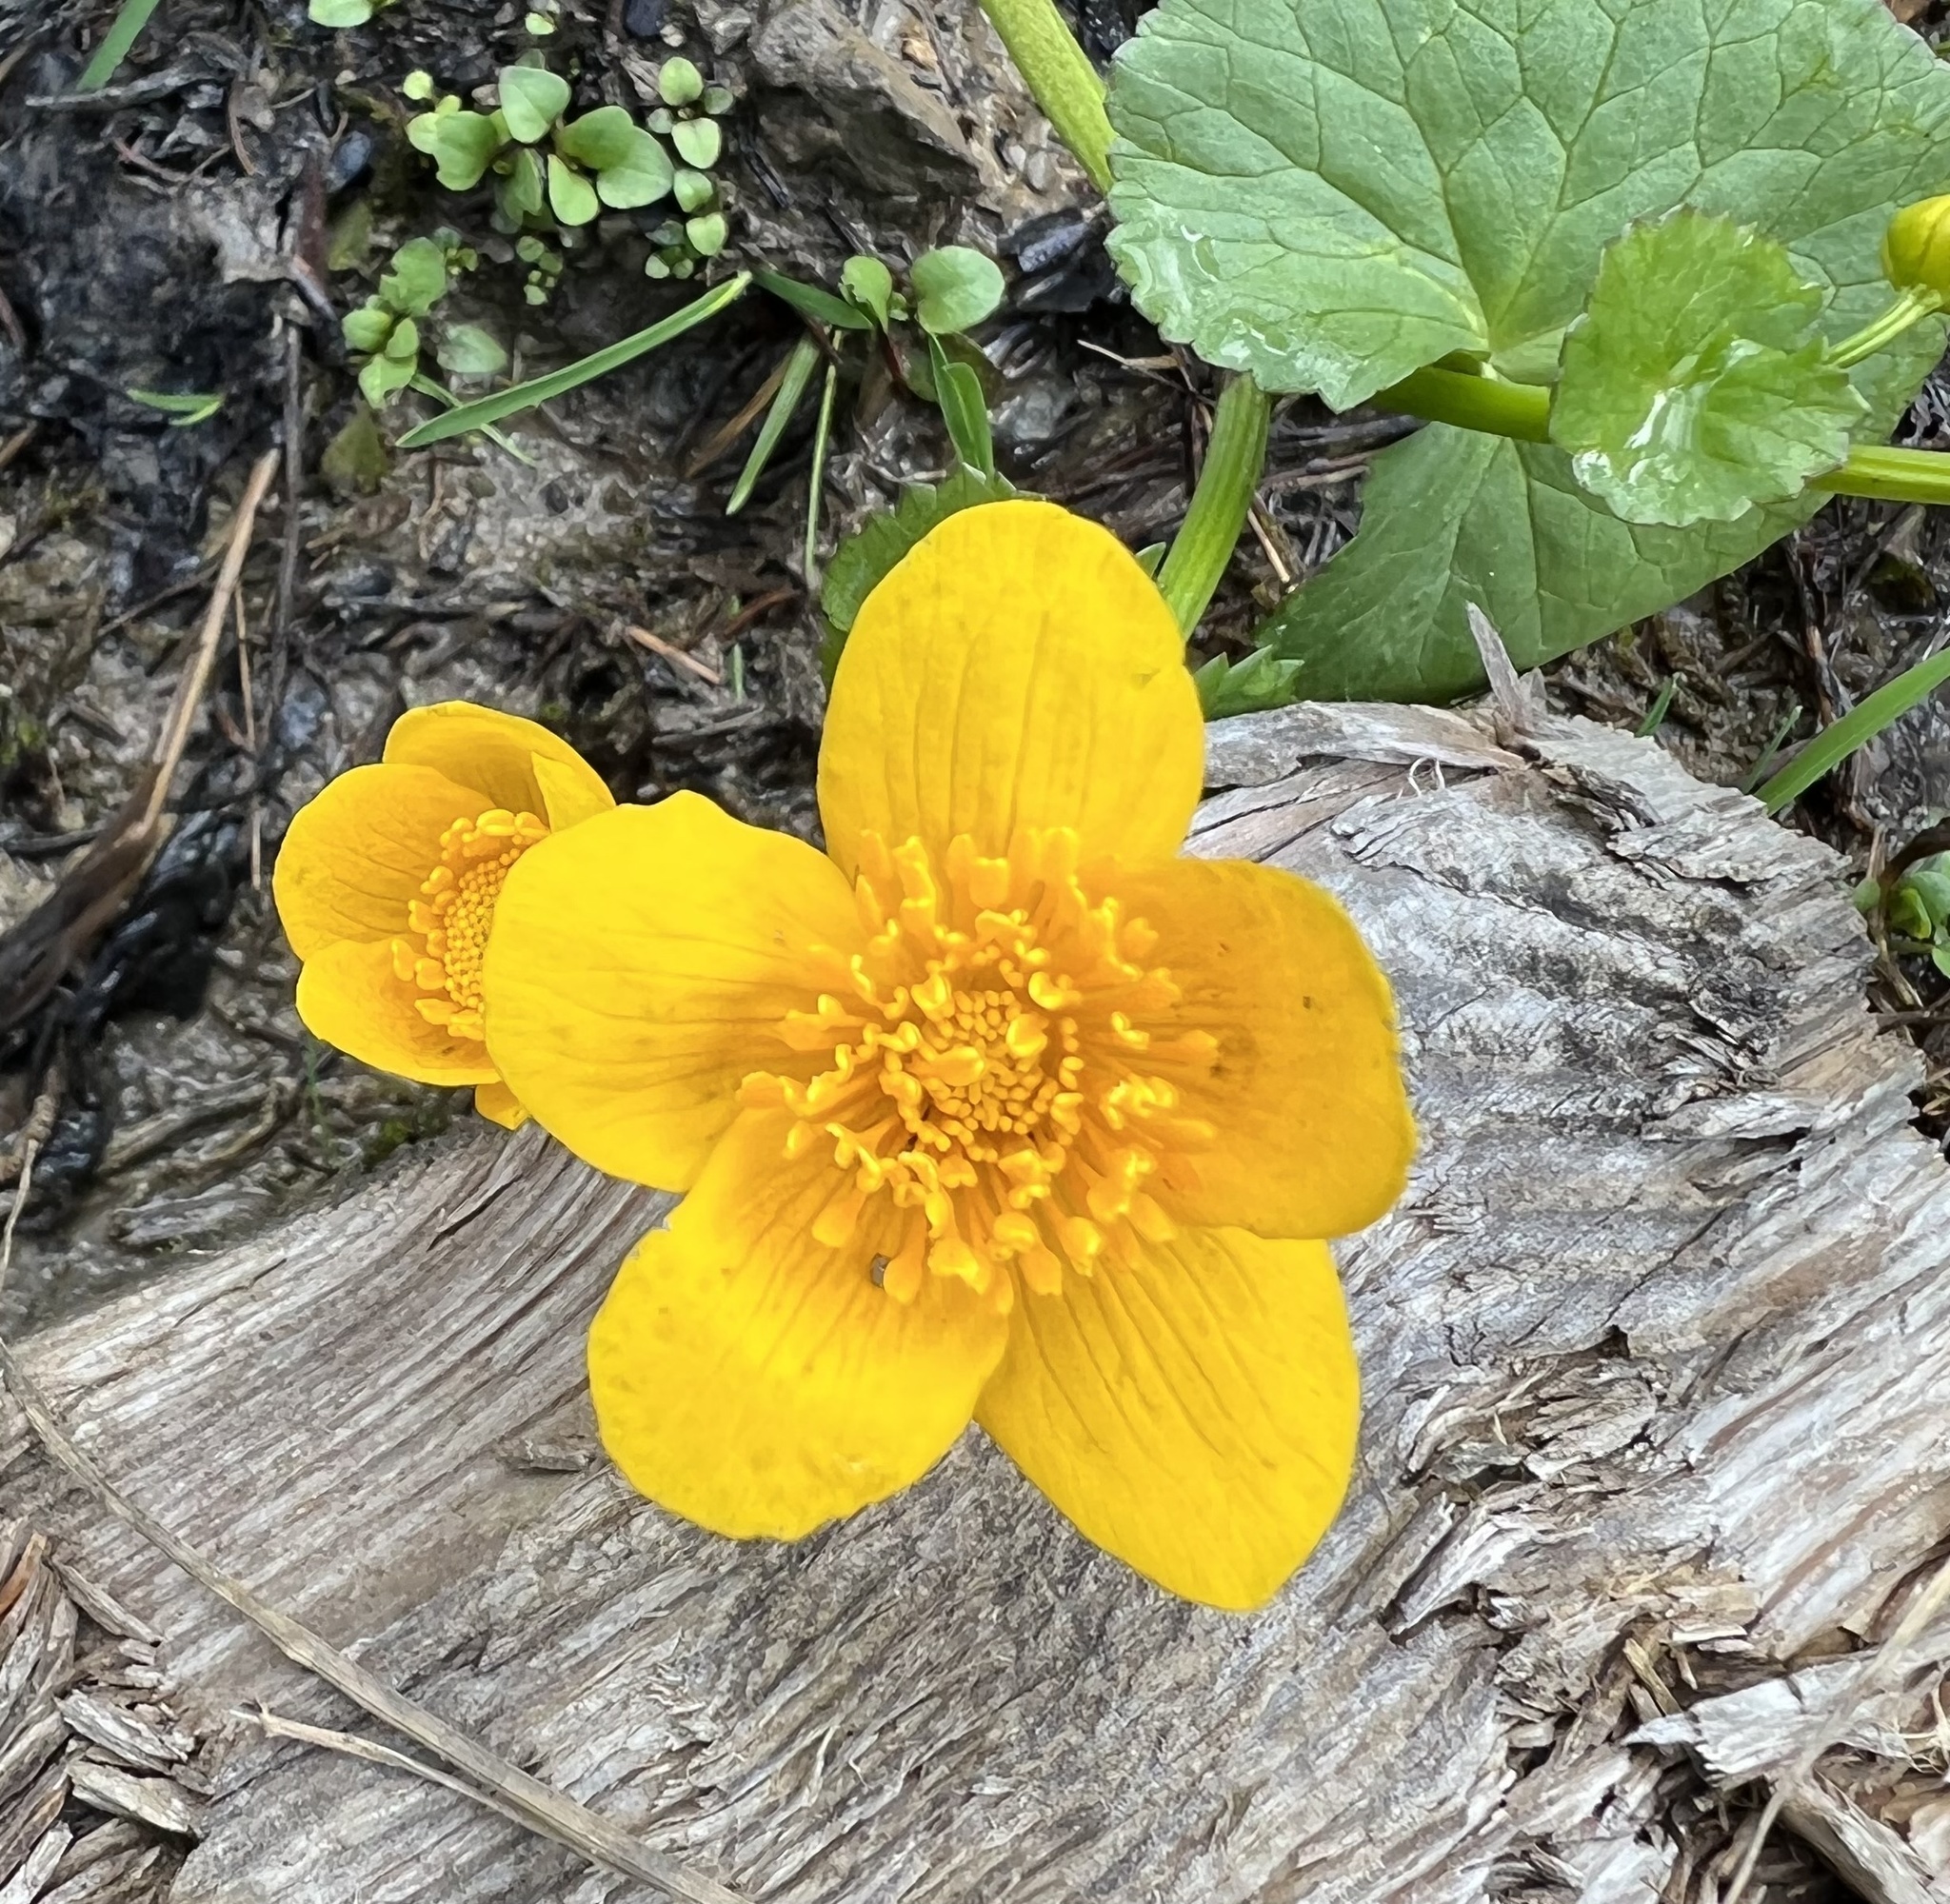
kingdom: Plantae
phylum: Tracheophyta
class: Magnoliopsida
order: Ranunculales
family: Ranunculaceae
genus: Caltha
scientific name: Caltha palustris
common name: Marsh marigold
